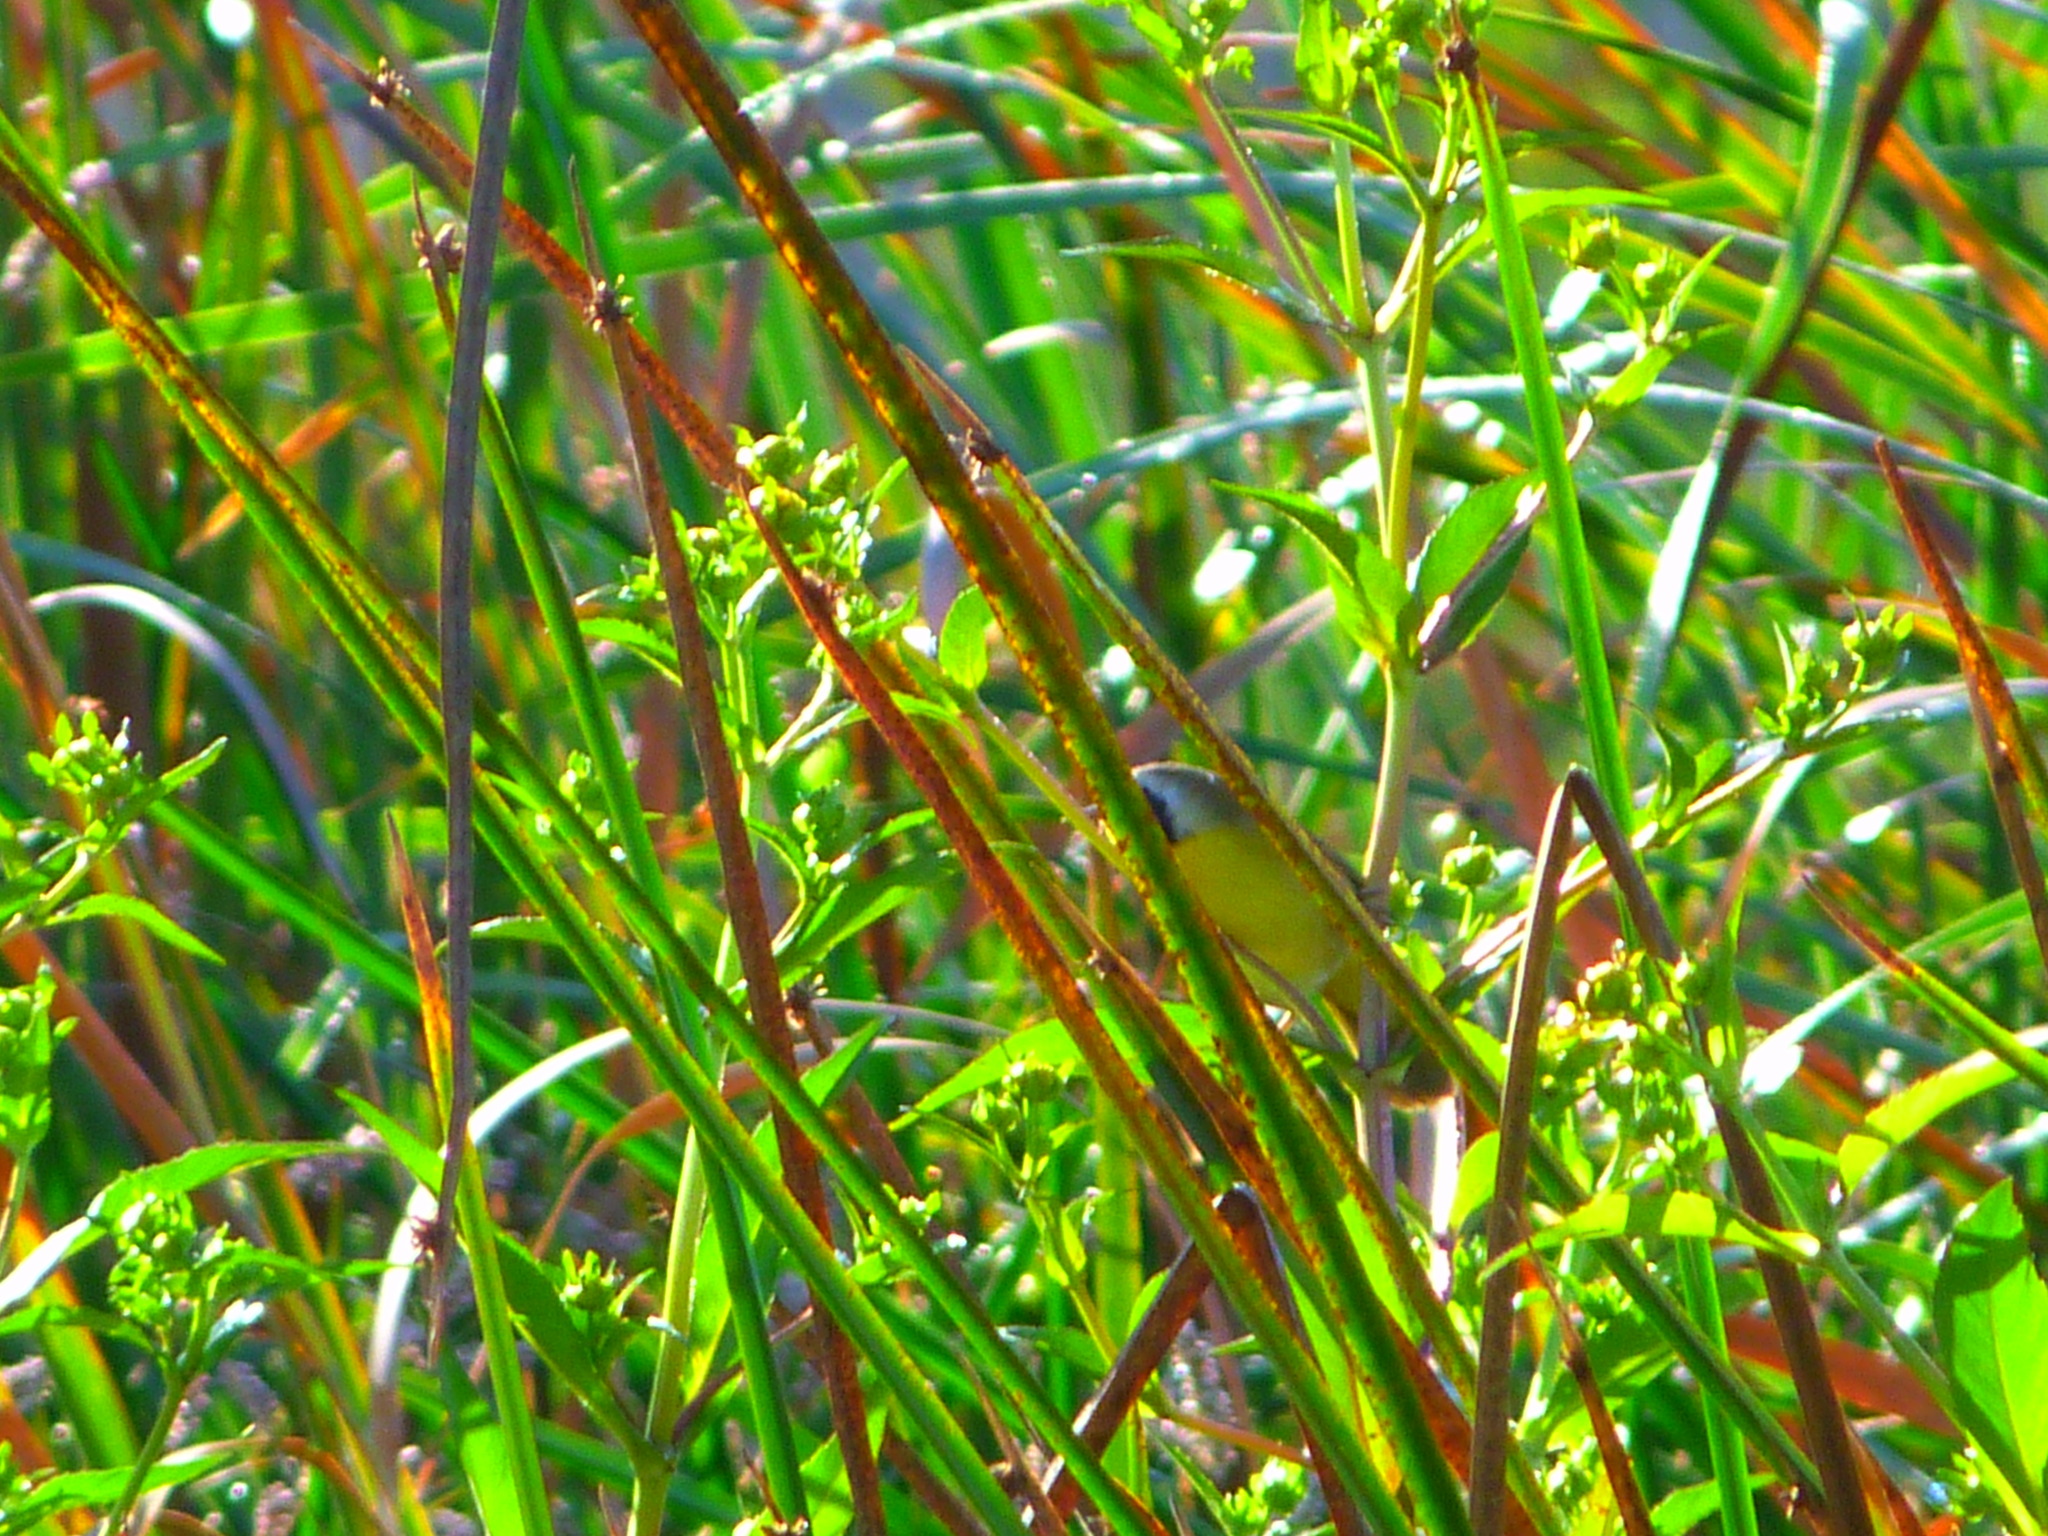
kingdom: Animalia
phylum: Chordata
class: Aves
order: Passeriformes
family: Parulidae
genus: Geothlypis
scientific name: Geothlypis trichas
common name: Common yellowthroat
